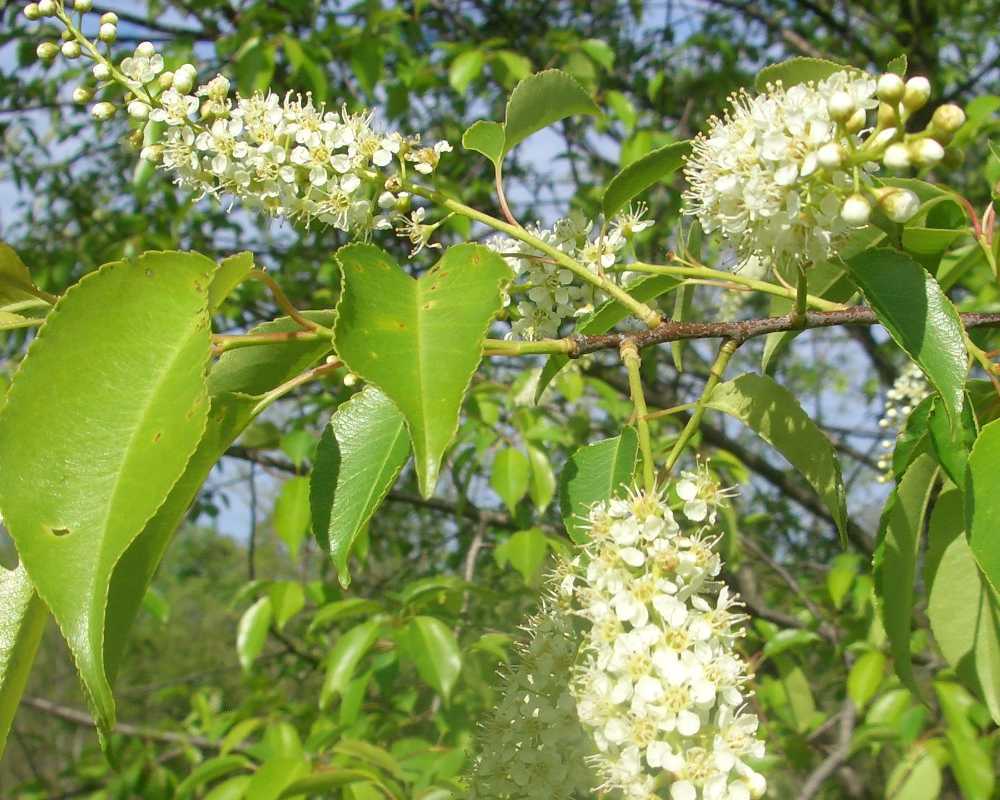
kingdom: Plantae
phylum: Tracheophyta
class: Magnoliopsida
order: Rosales
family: Rosaceae
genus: Prunus
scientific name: Prunus serotina
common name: Black cherry
